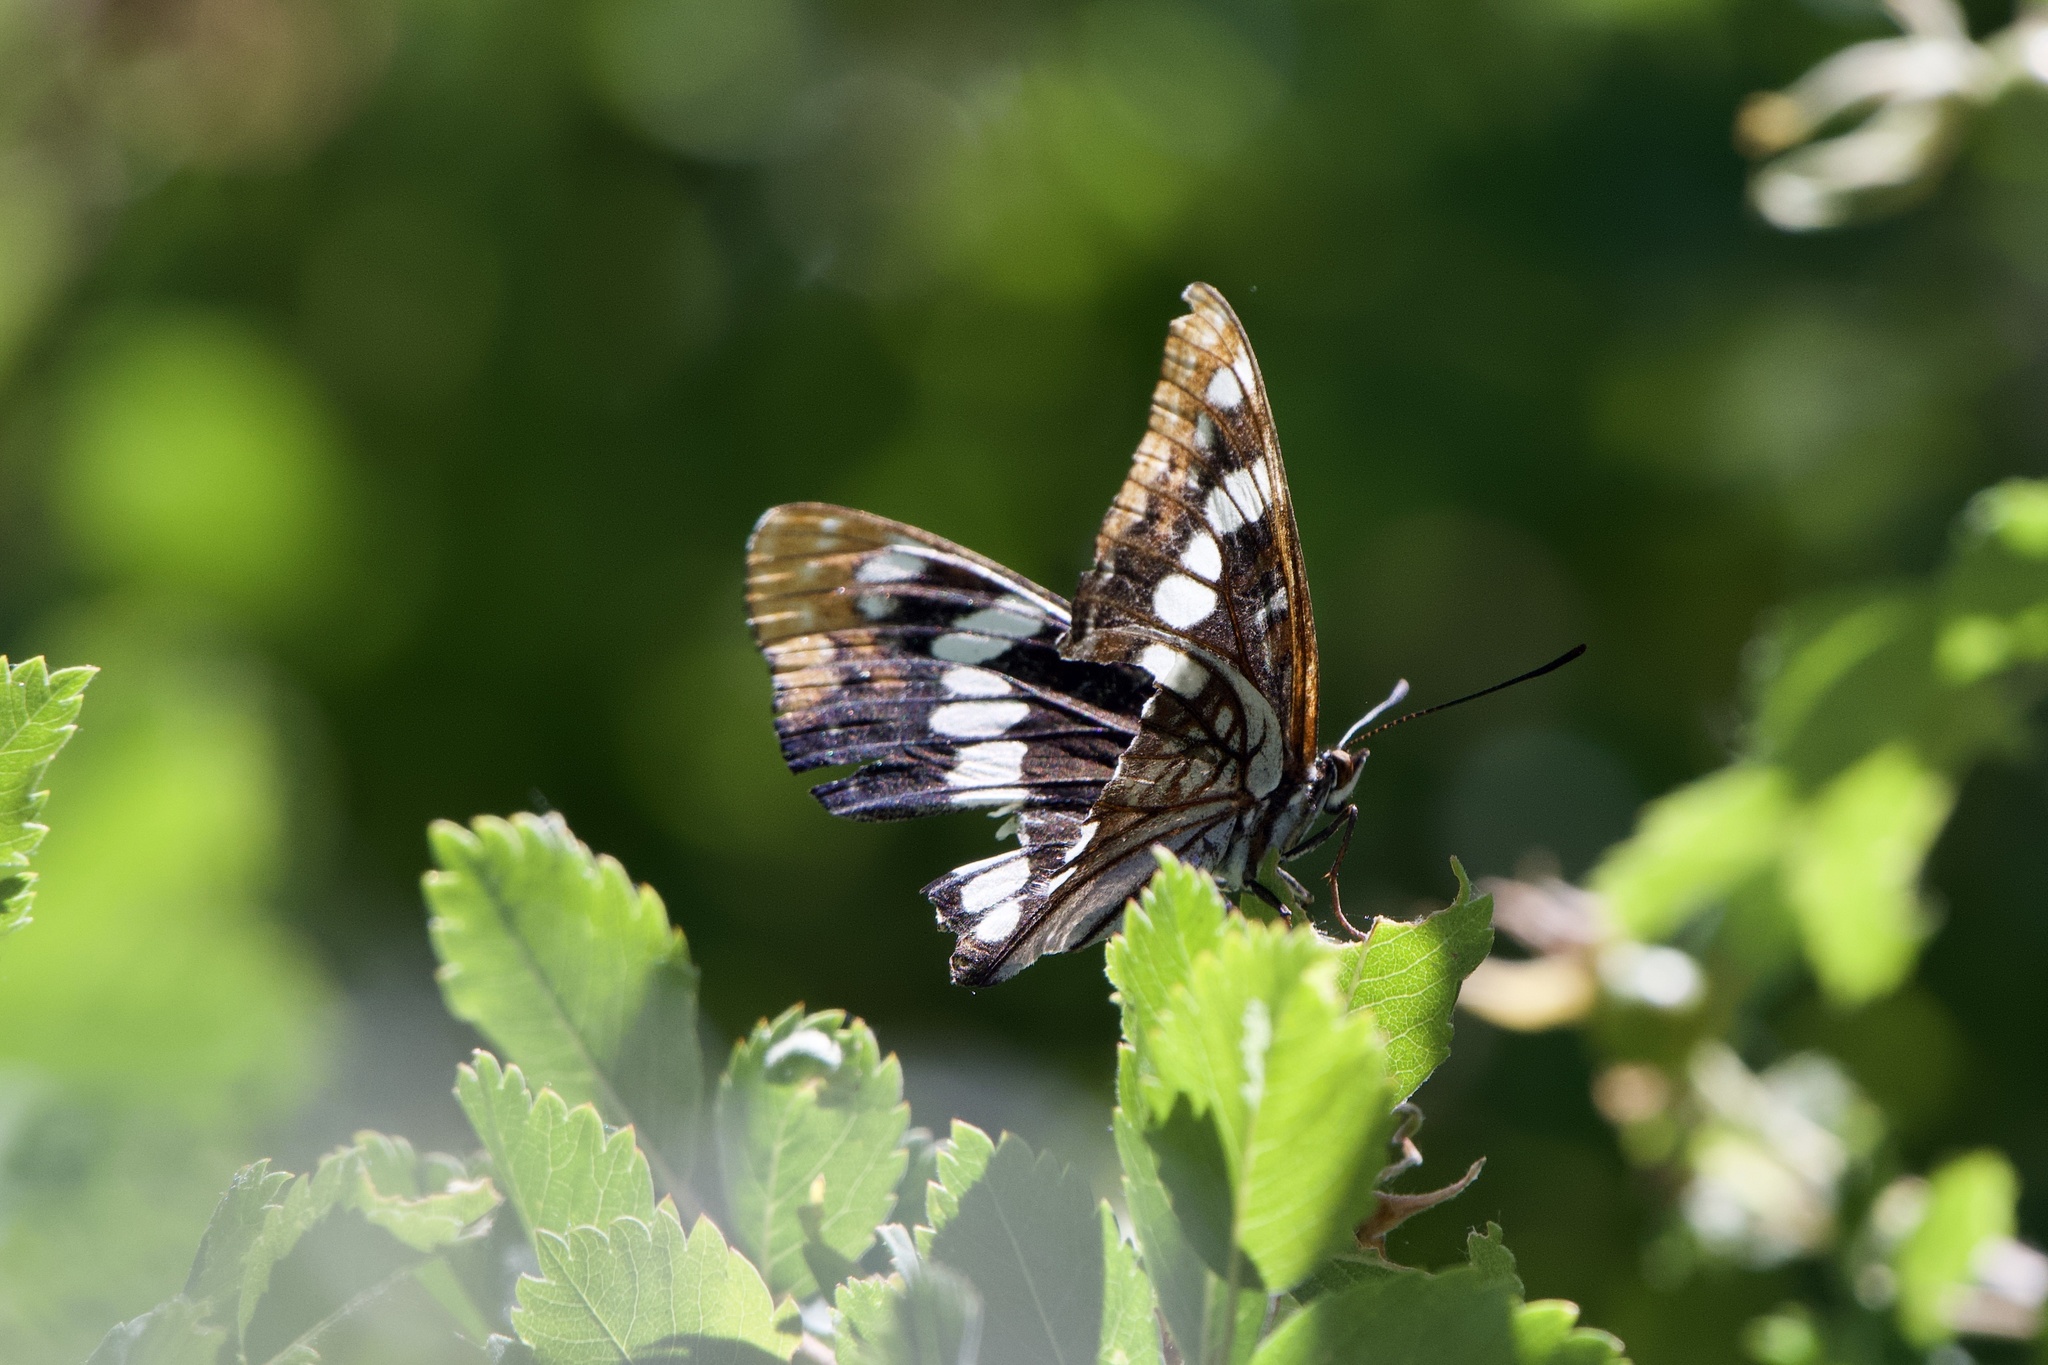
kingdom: Animalia
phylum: Arthropoda
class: Insecta
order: Lepidoptera
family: Nymphalidae
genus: Limenitis
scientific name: Limenitis lorquini
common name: Lorquin's admiral
